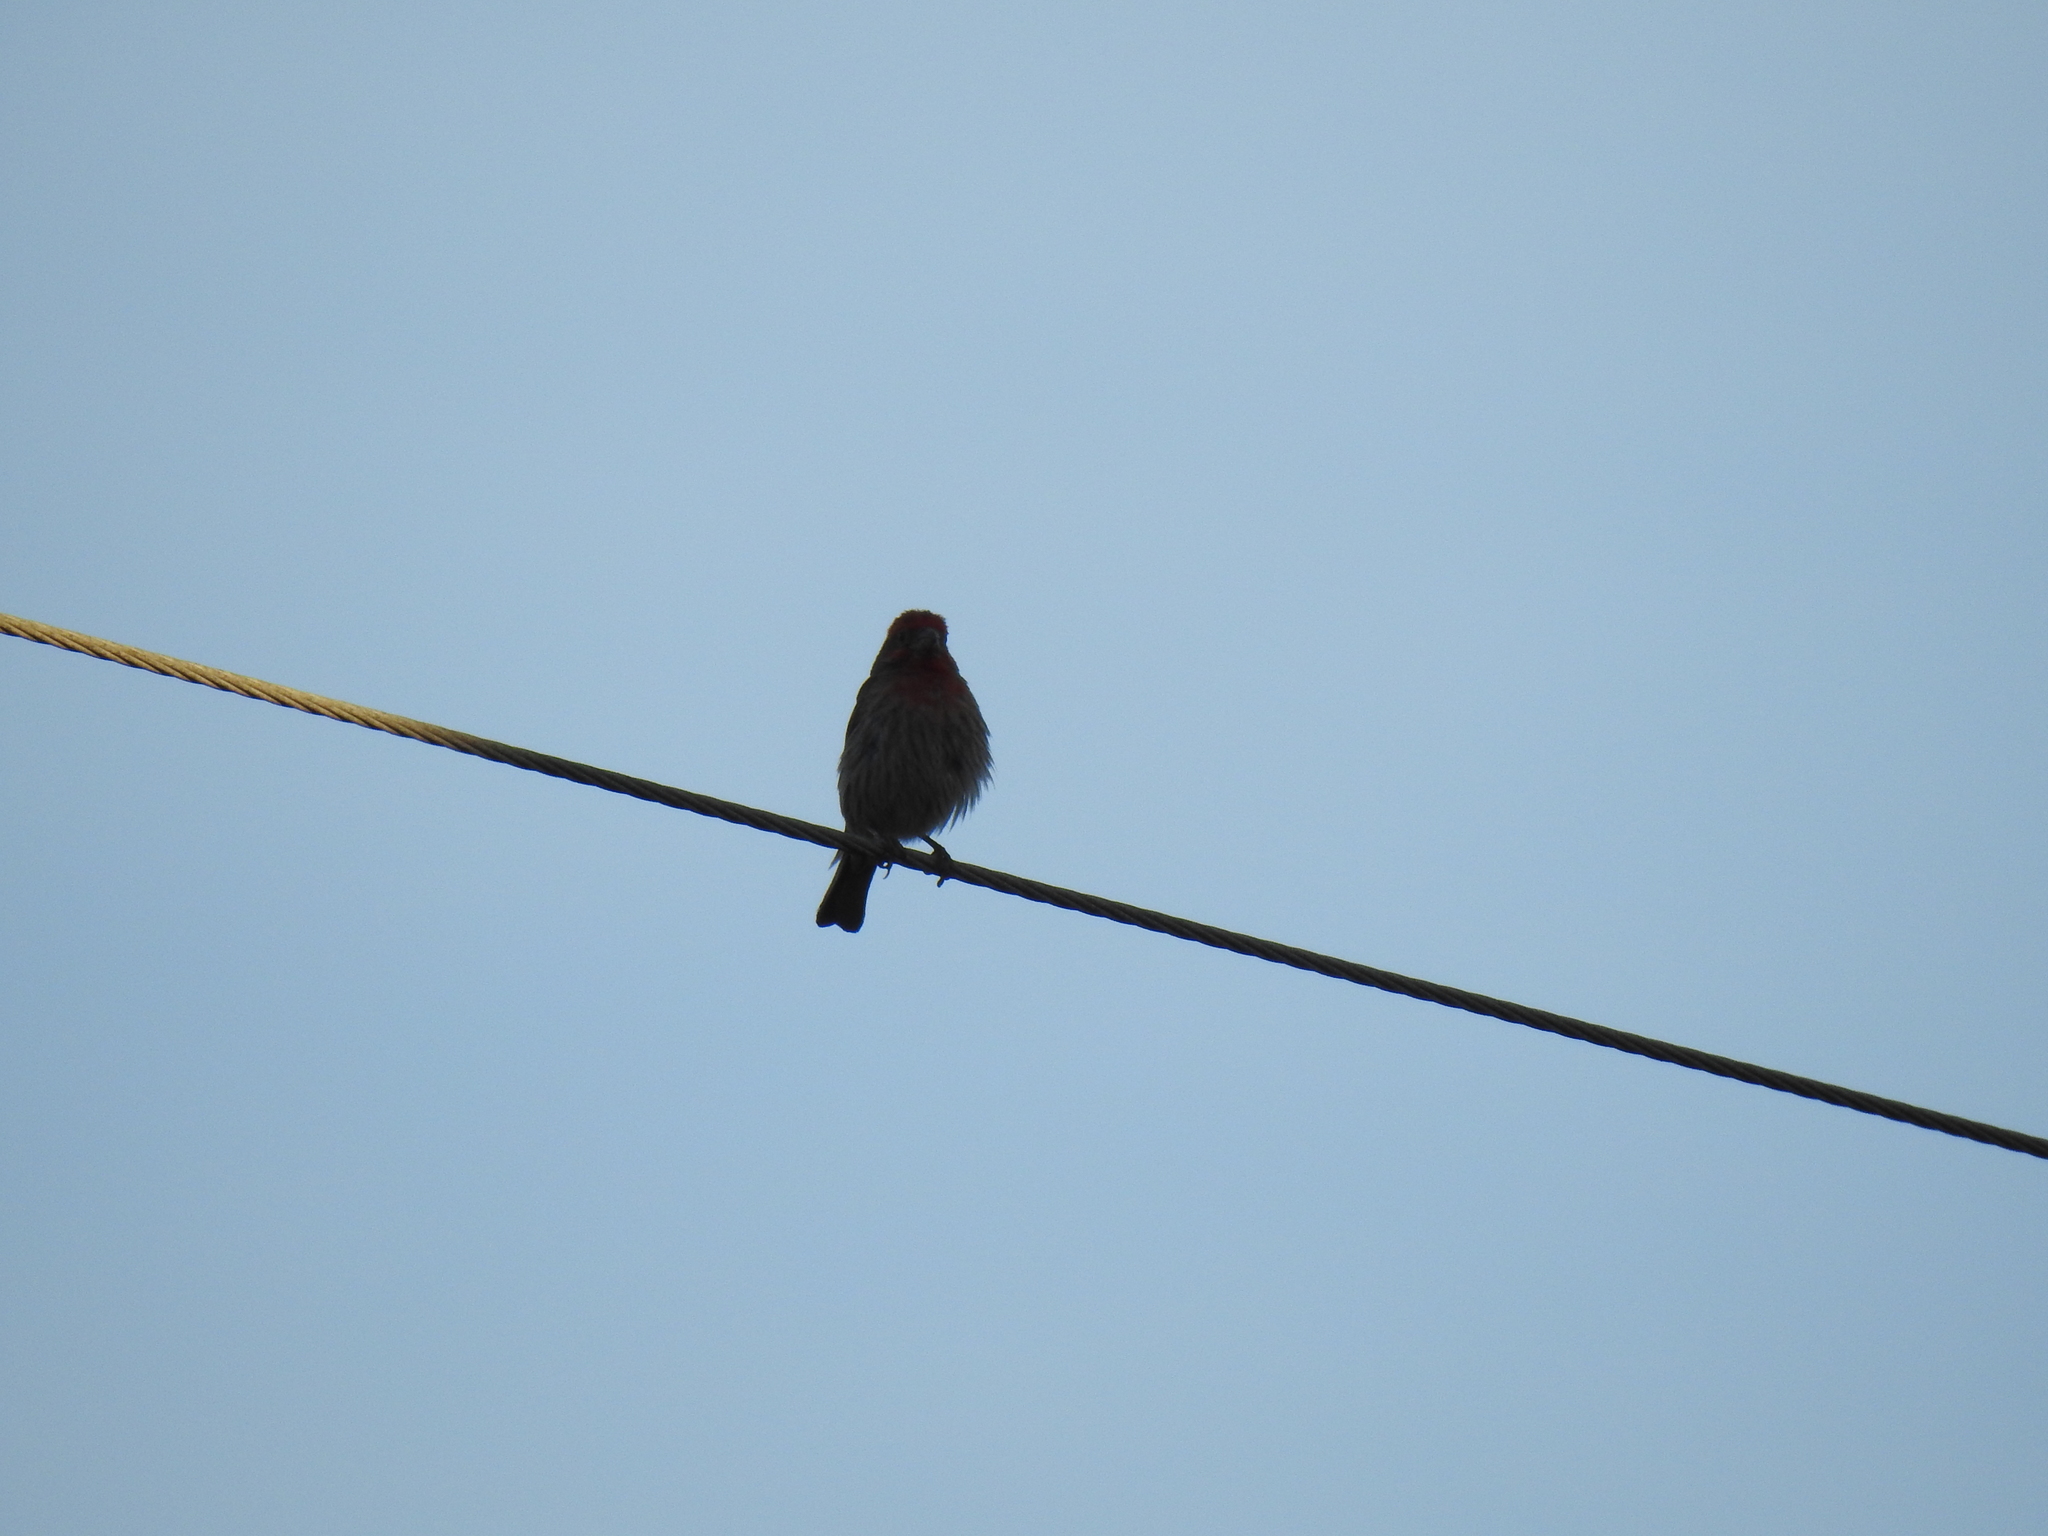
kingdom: Animalia
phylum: Chordata
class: Aves
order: Passeriformes
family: Fringillidae
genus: Haemorhous
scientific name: Haemorhous mexicanus
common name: House finch
